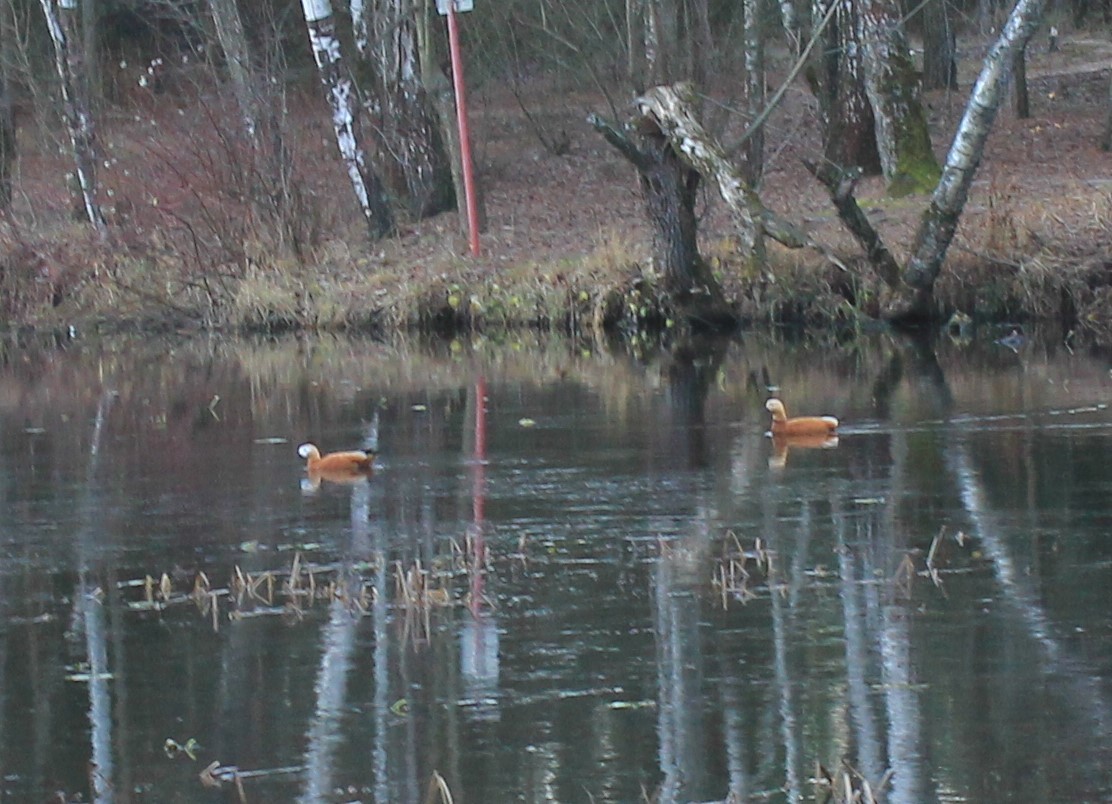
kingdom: Animalia
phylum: Chordata
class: Aves
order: Anseriformes
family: Anatidae
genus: Tadorna
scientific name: Tadorna ferruginea
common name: Ruddy shelduck
